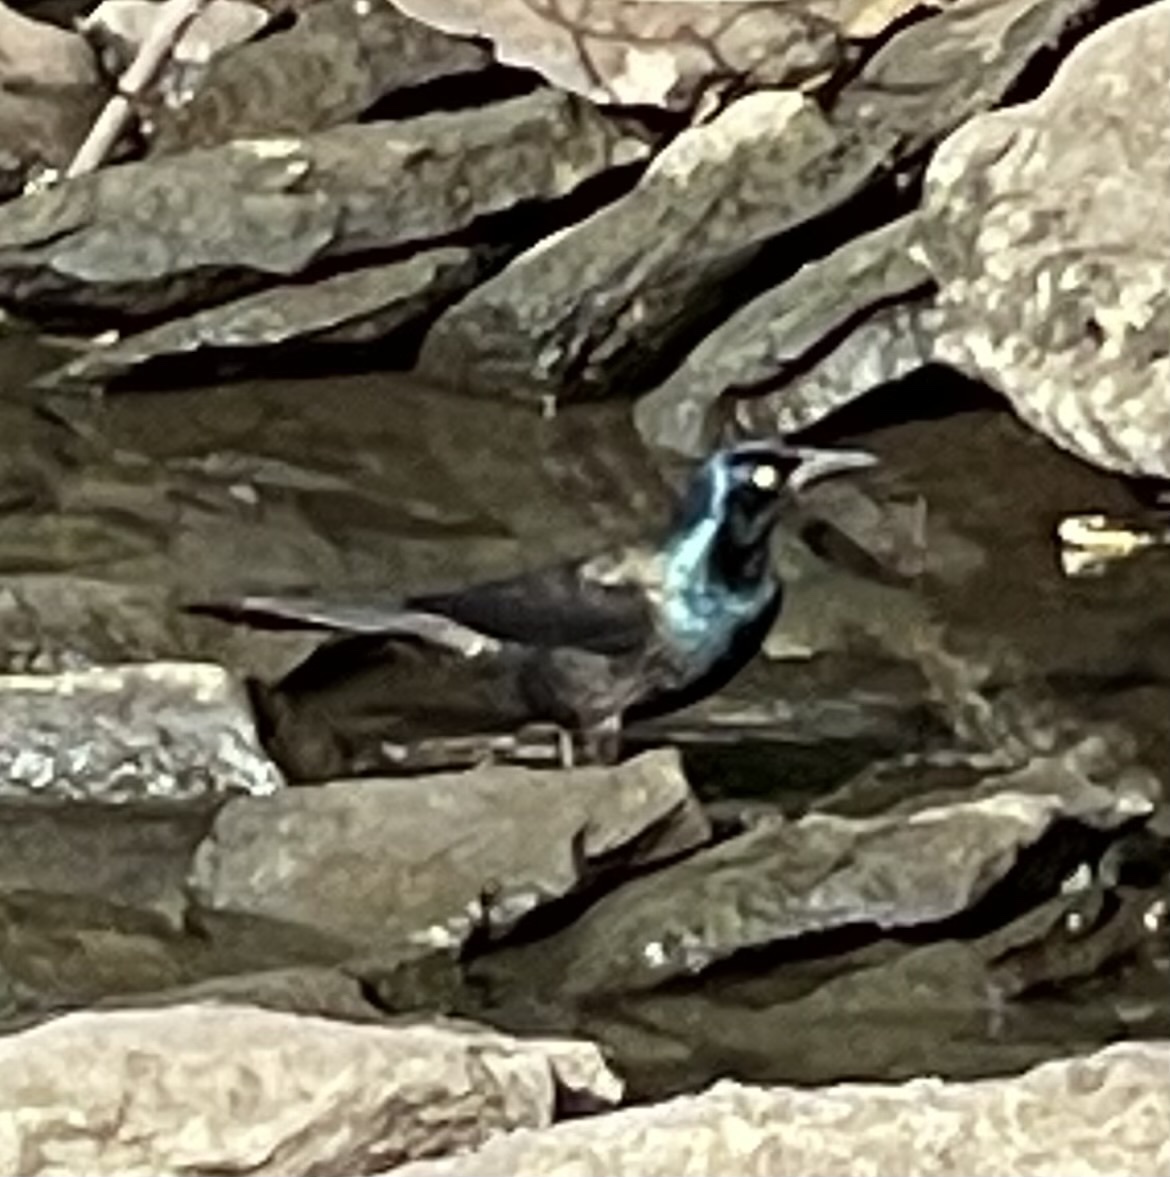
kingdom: Animalia
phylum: Chordata
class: Aves
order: Passeriformes
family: Icteridae
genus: Quiscalus
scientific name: Quiscalus quiscula
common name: Common grackle
